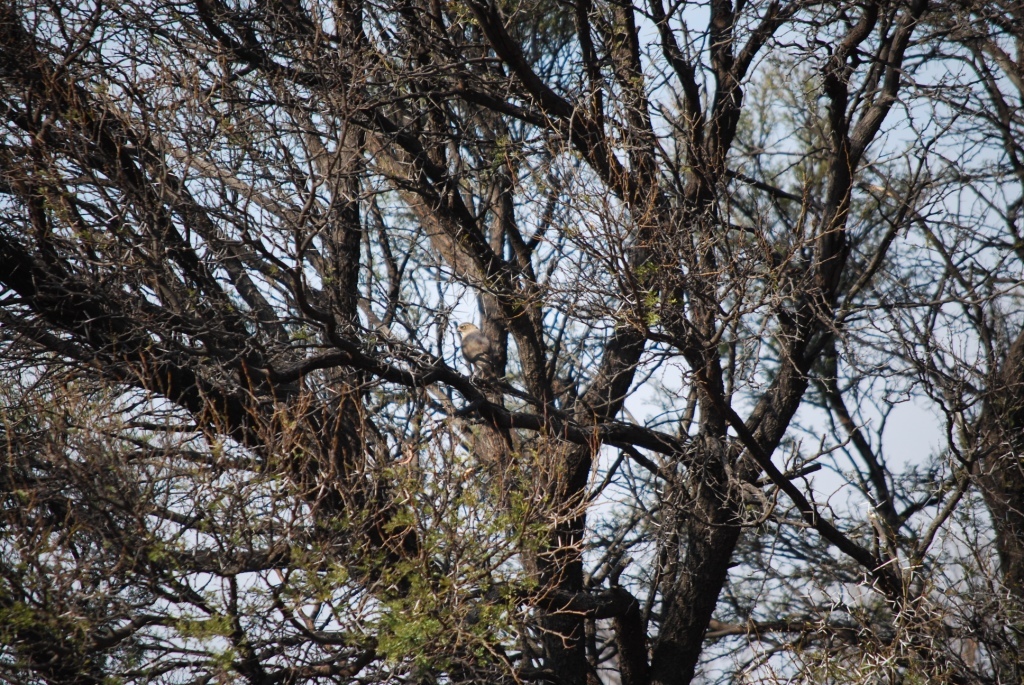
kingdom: Animalia
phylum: Chordata
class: Aves
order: Accipitriformes
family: Accipitridae
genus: Micronisus
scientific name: Micronisus gabar
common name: Gabar goshawk
